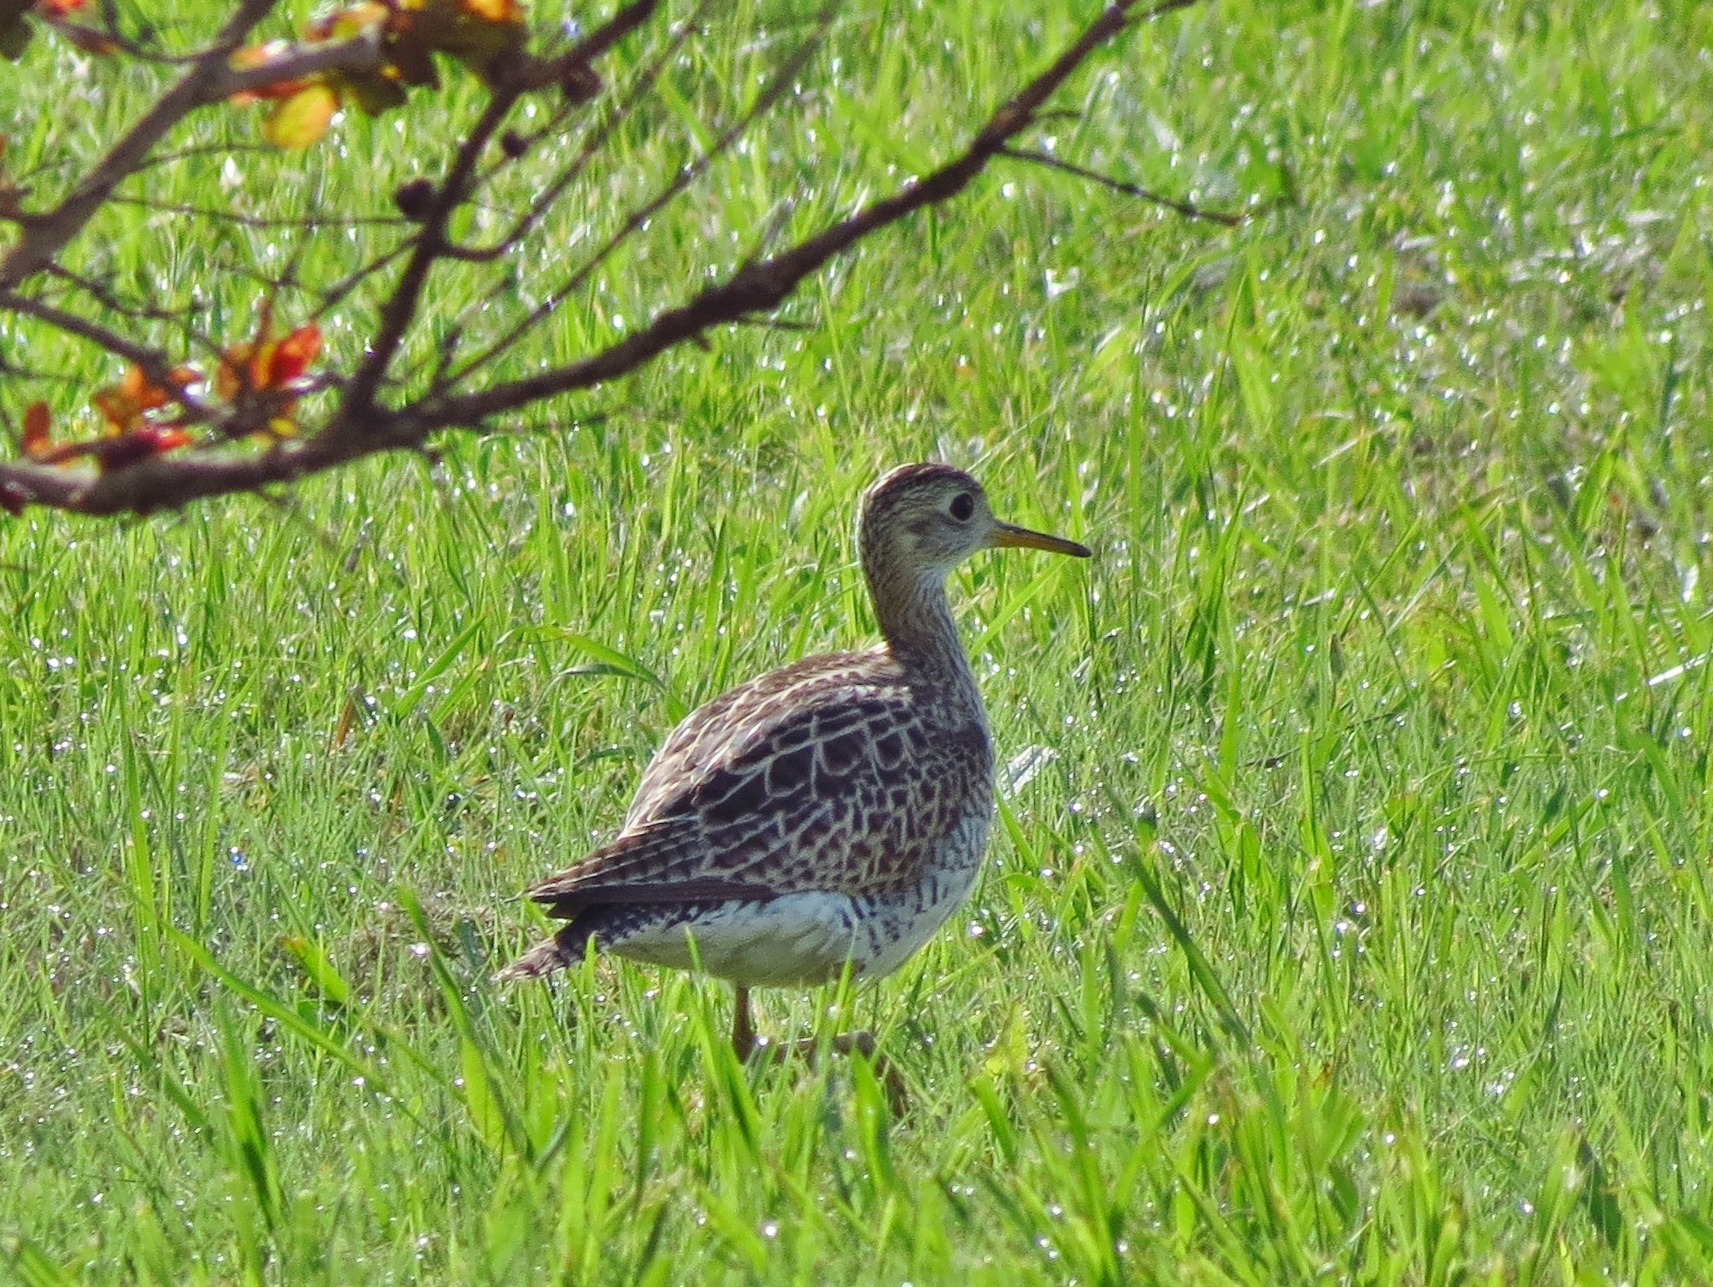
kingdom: Animalia
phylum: Chordata
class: Aves
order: Charadriiformes
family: Scolopacidae
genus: Bartramia
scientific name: Bartramia longicauda
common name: Upland sandpiper
